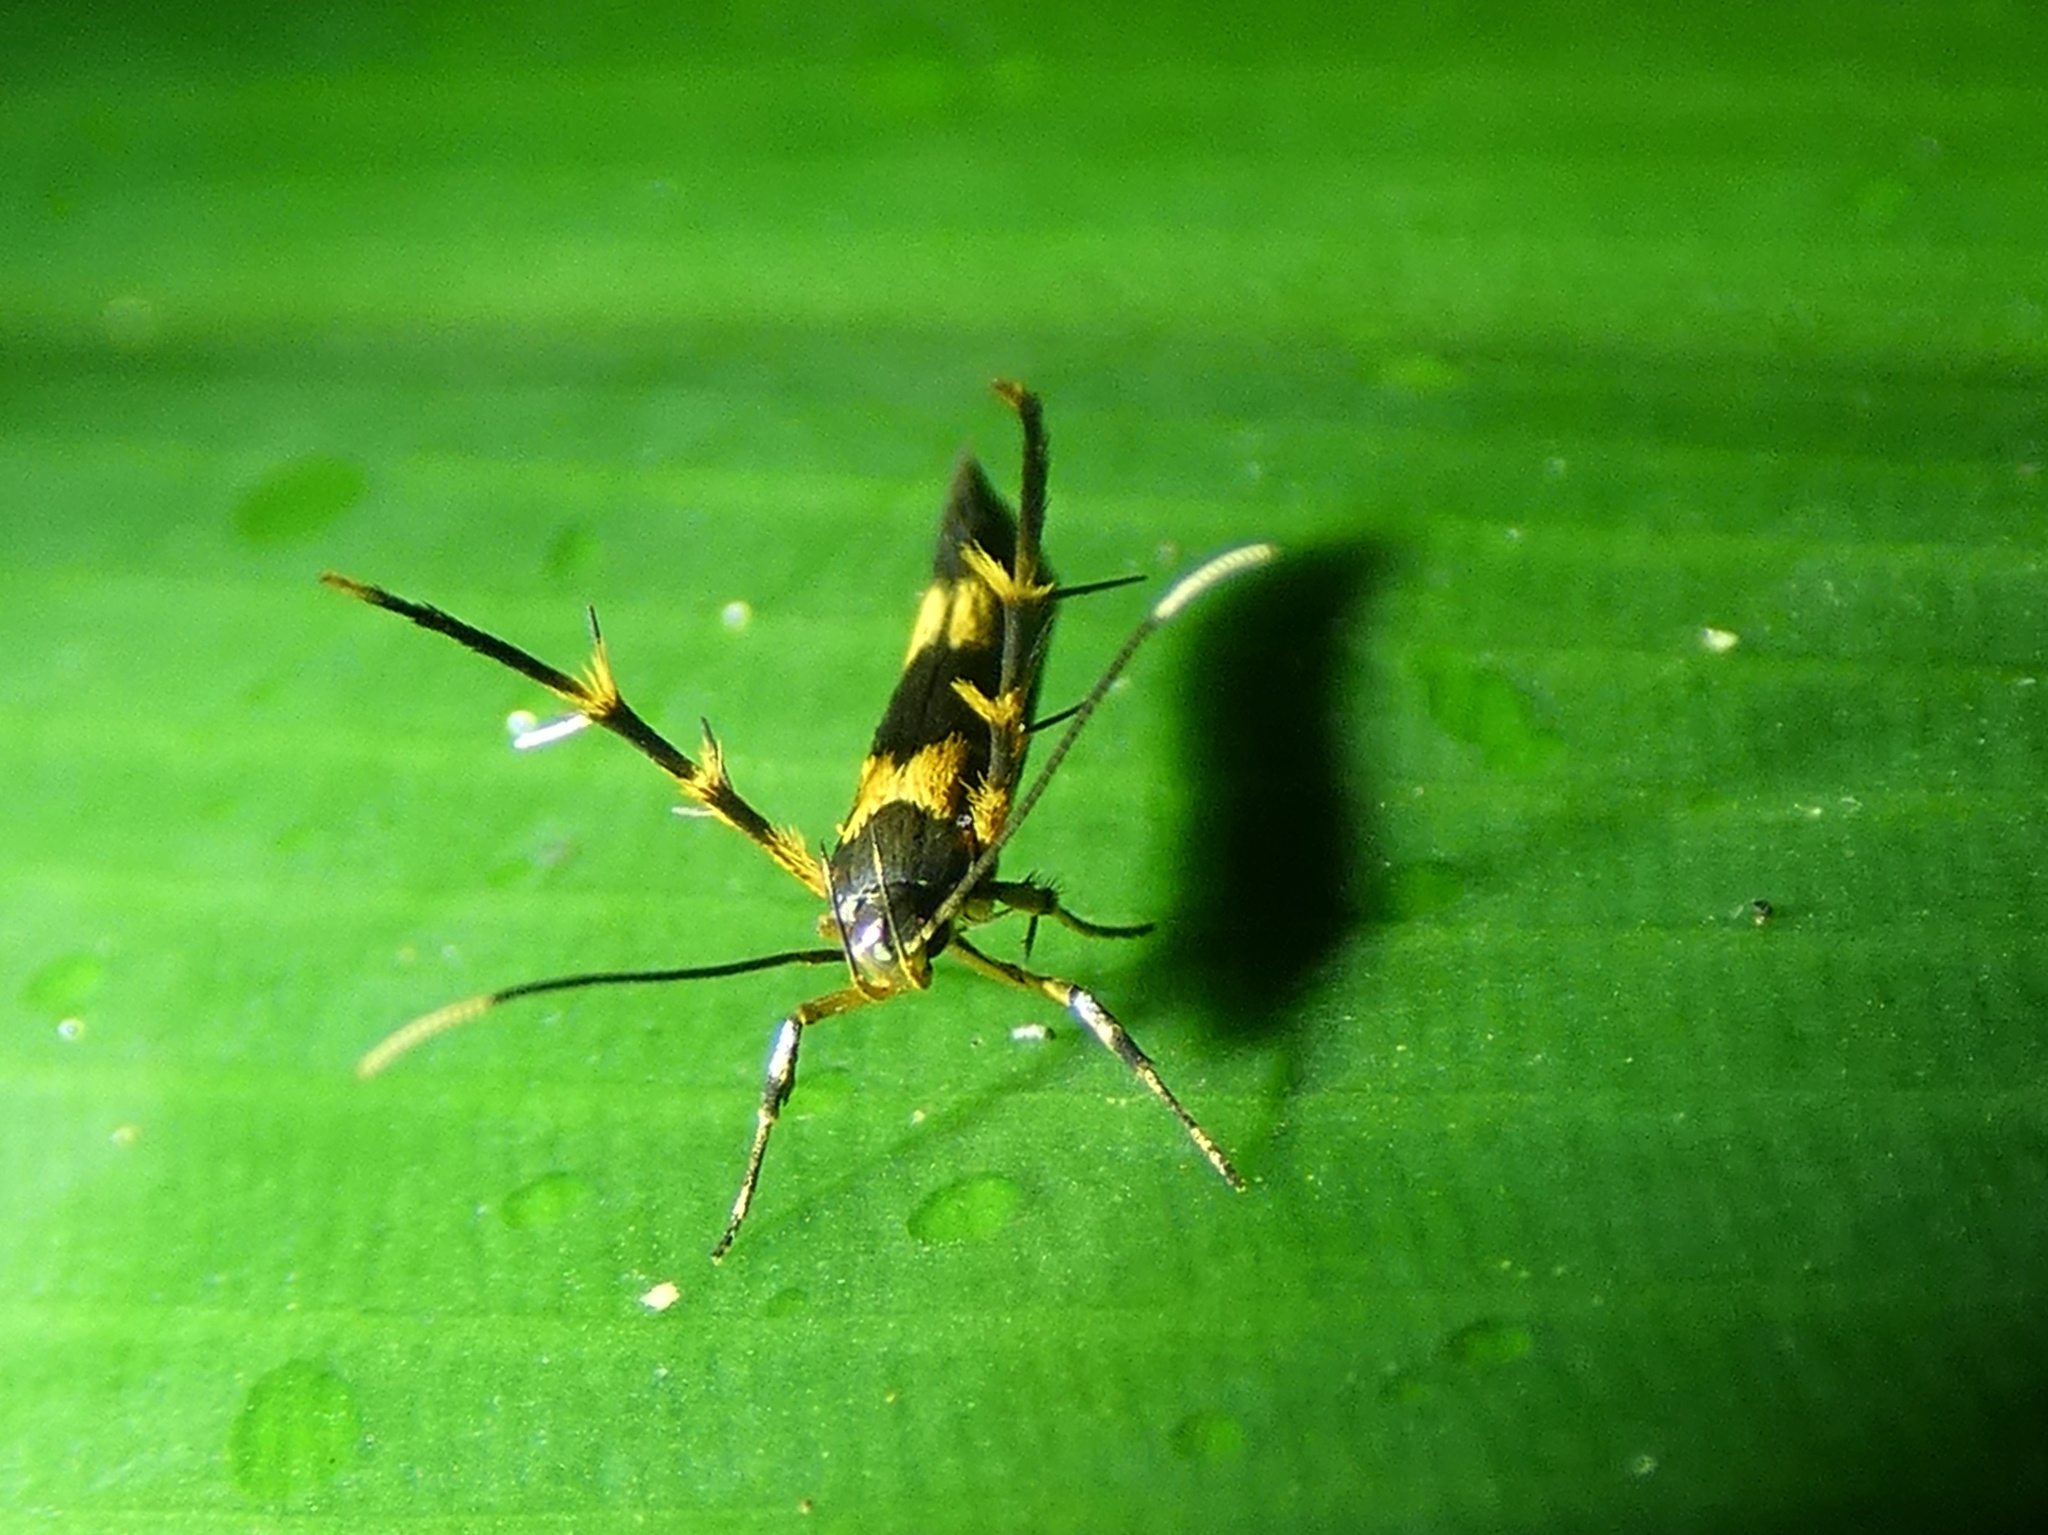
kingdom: Animalia
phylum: Arthropoda
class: Insecta
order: Lepidoptera
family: Cosmopterigidae
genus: Xestocasis
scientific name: Xestocasis balanochrysa
